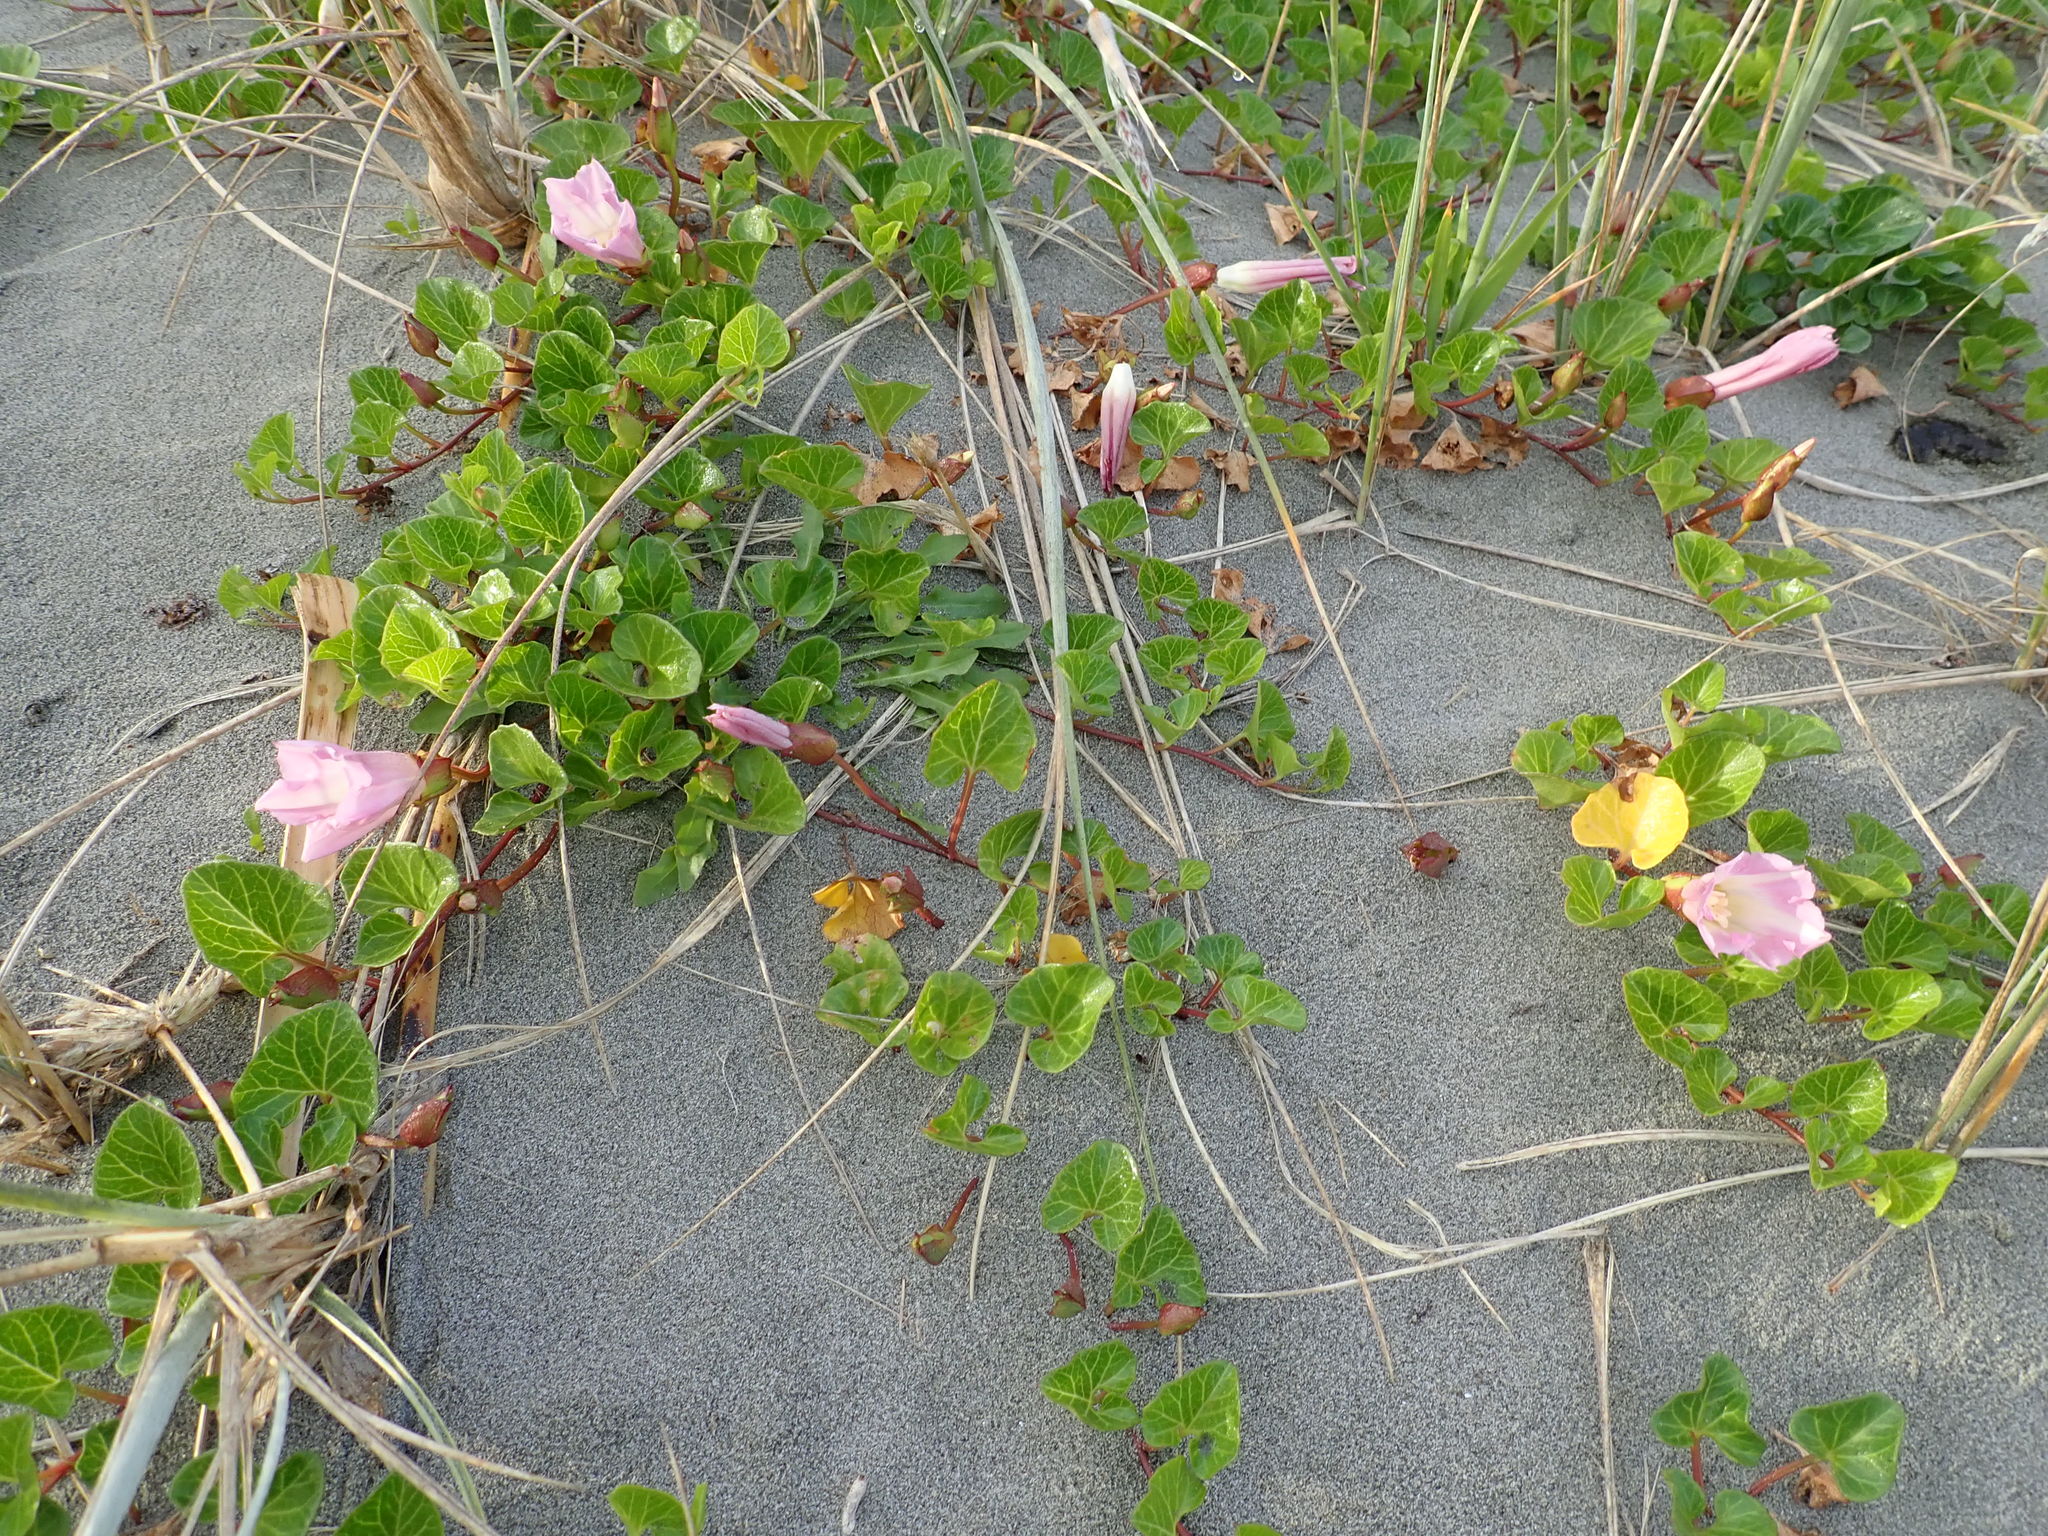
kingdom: Plantae
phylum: Tracheophyta
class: Magnoliopsida
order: Solanales
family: Convolvulaceae
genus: Calystegia
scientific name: Calystegia soldanella
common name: Sea bindweed
